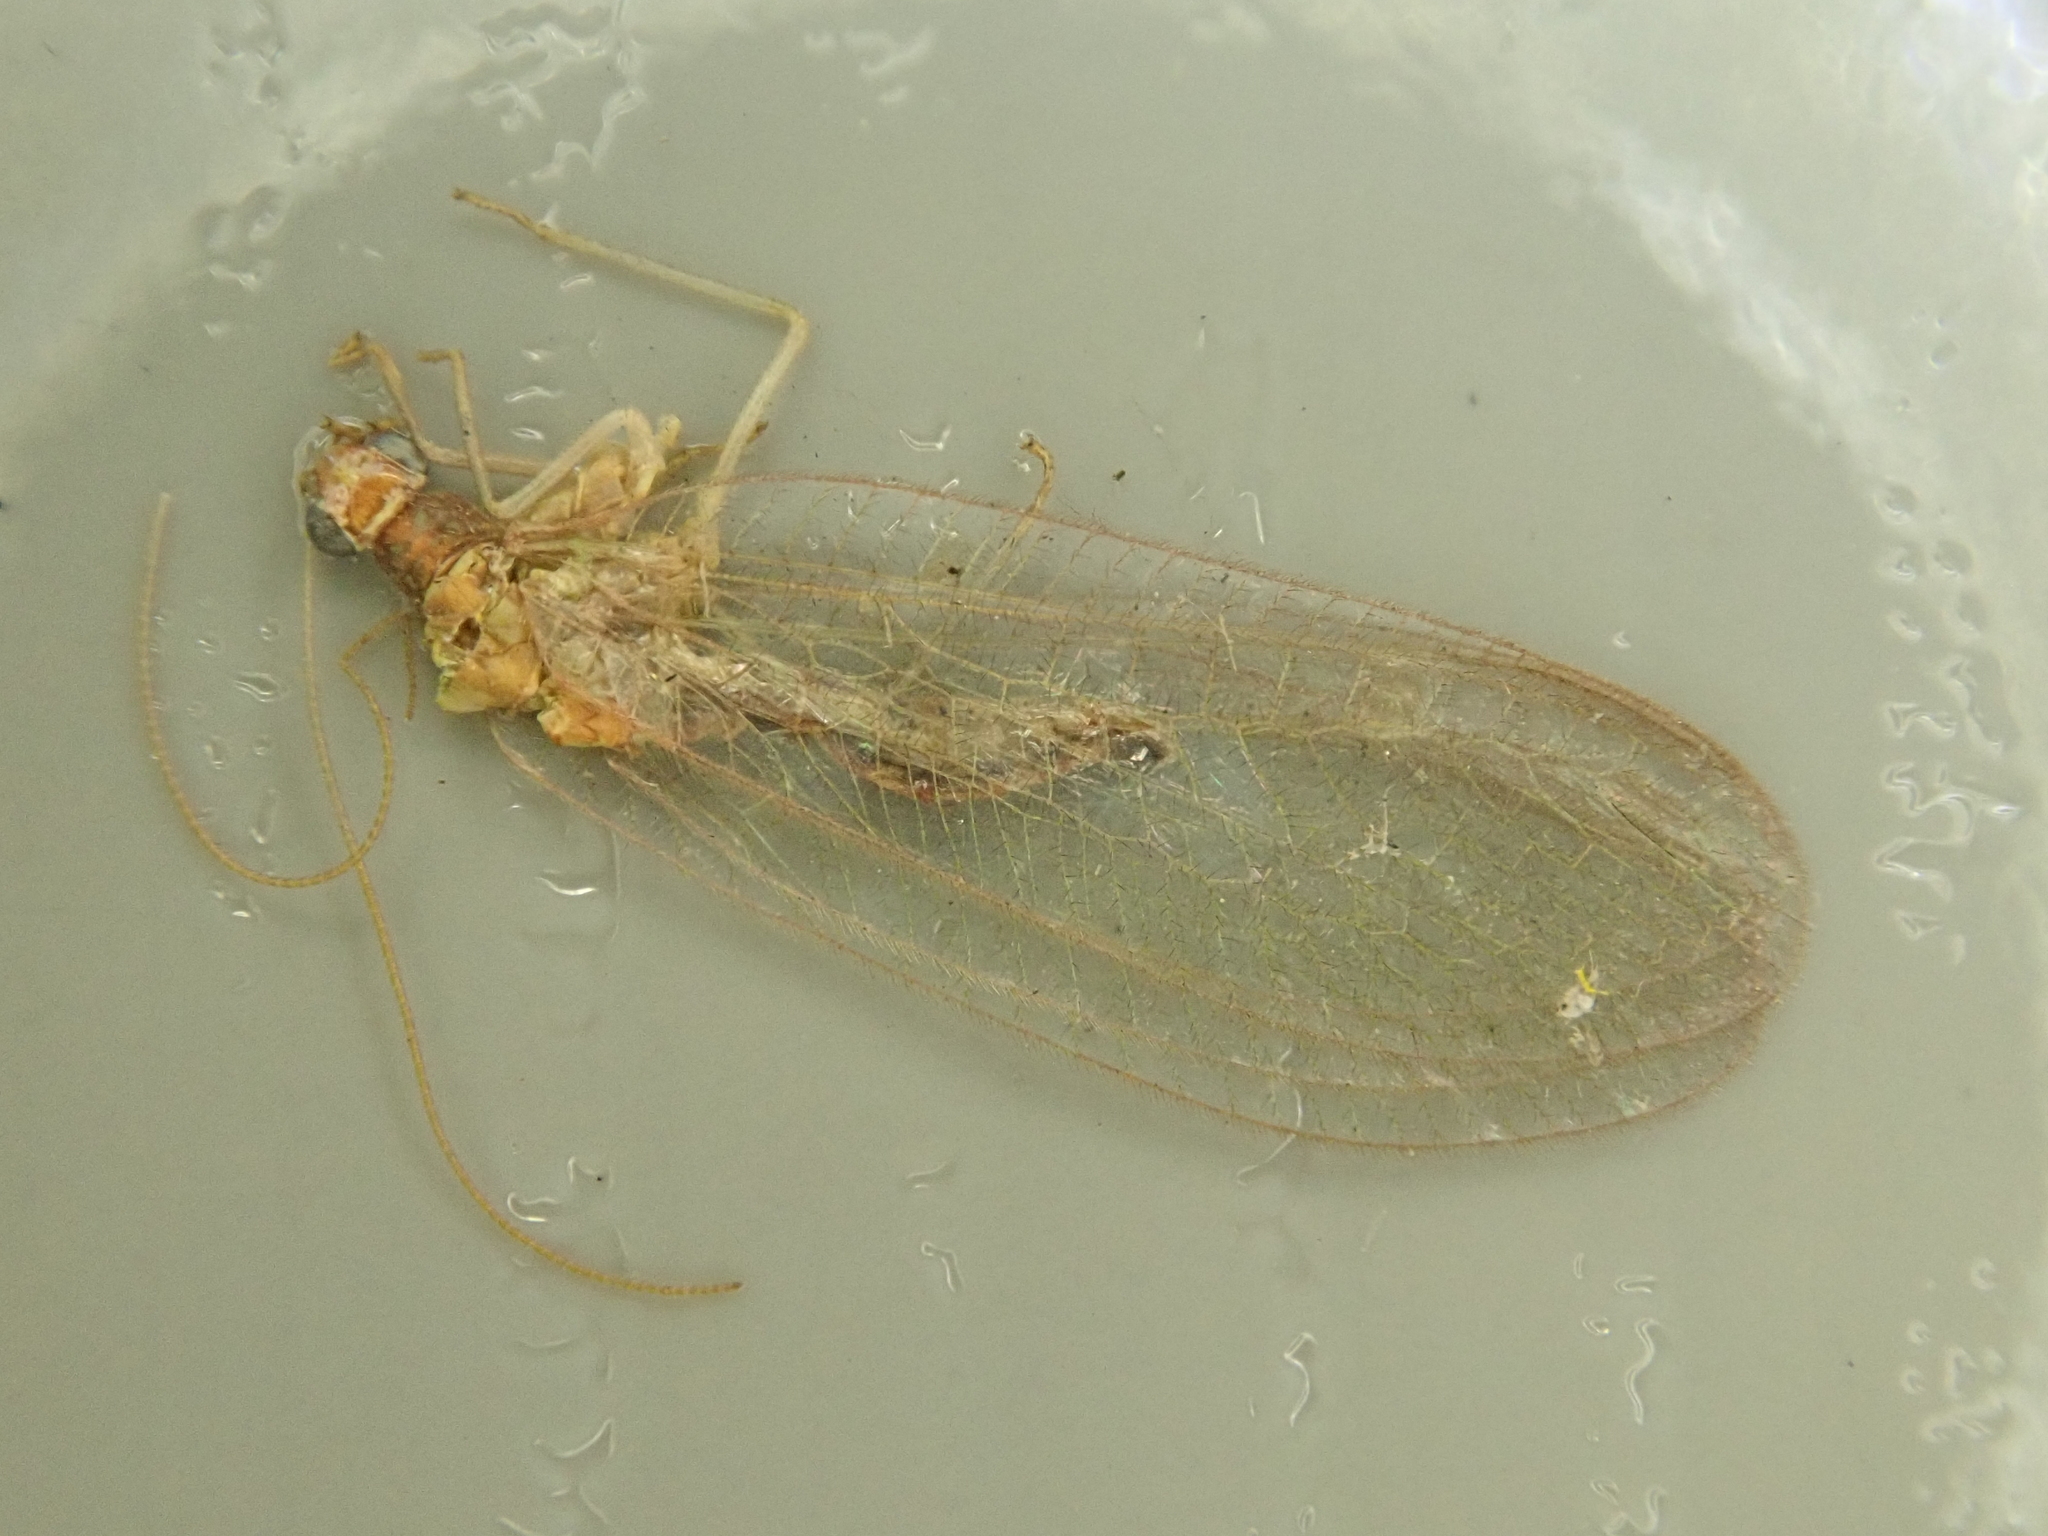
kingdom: Animalia
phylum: Arthropoda
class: Insecta
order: Neuroptera
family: Chrysopidae
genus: Chrysoperla
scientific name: Chrysoperla
